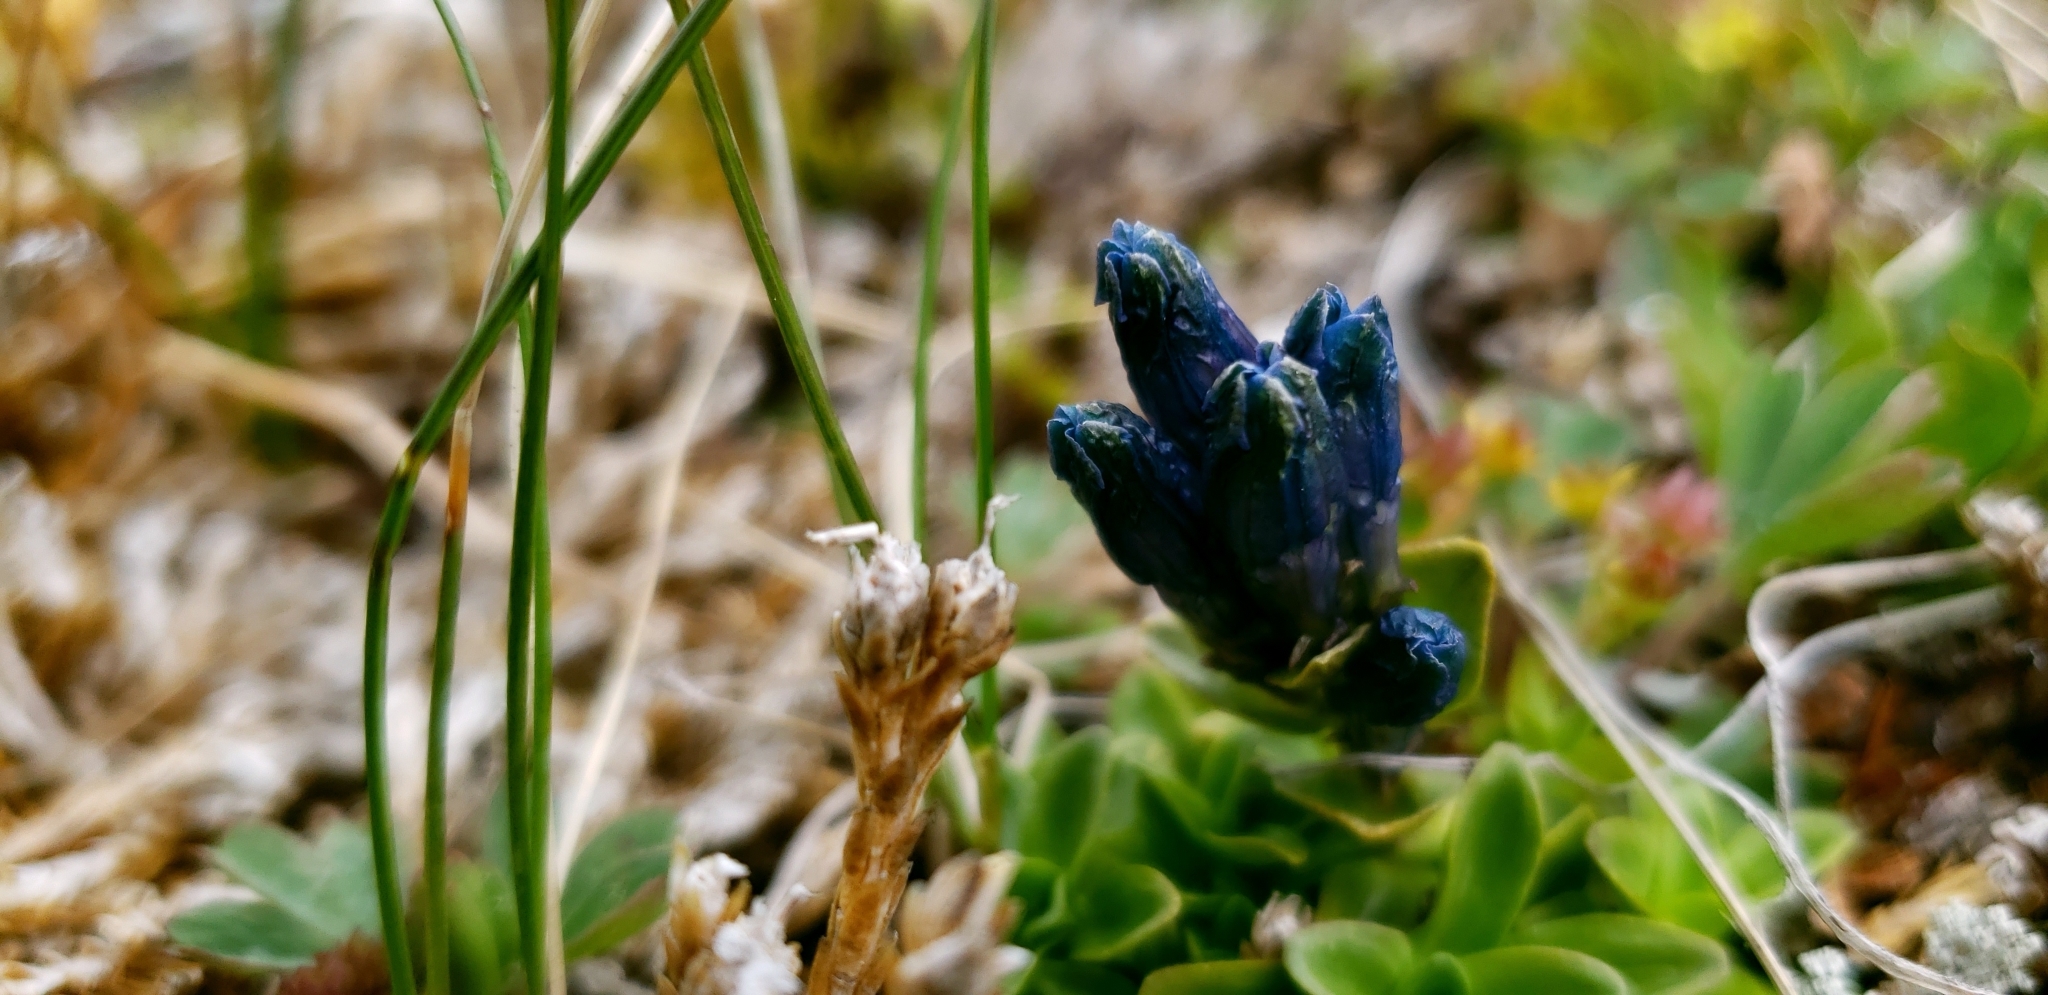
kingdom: Plantae
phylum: Tracheophyta
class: Magnoliopsida
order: Gentianales
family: Gentianaceae
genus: Gentiana
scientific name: Gentiana glauca
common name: Alpine gentian
